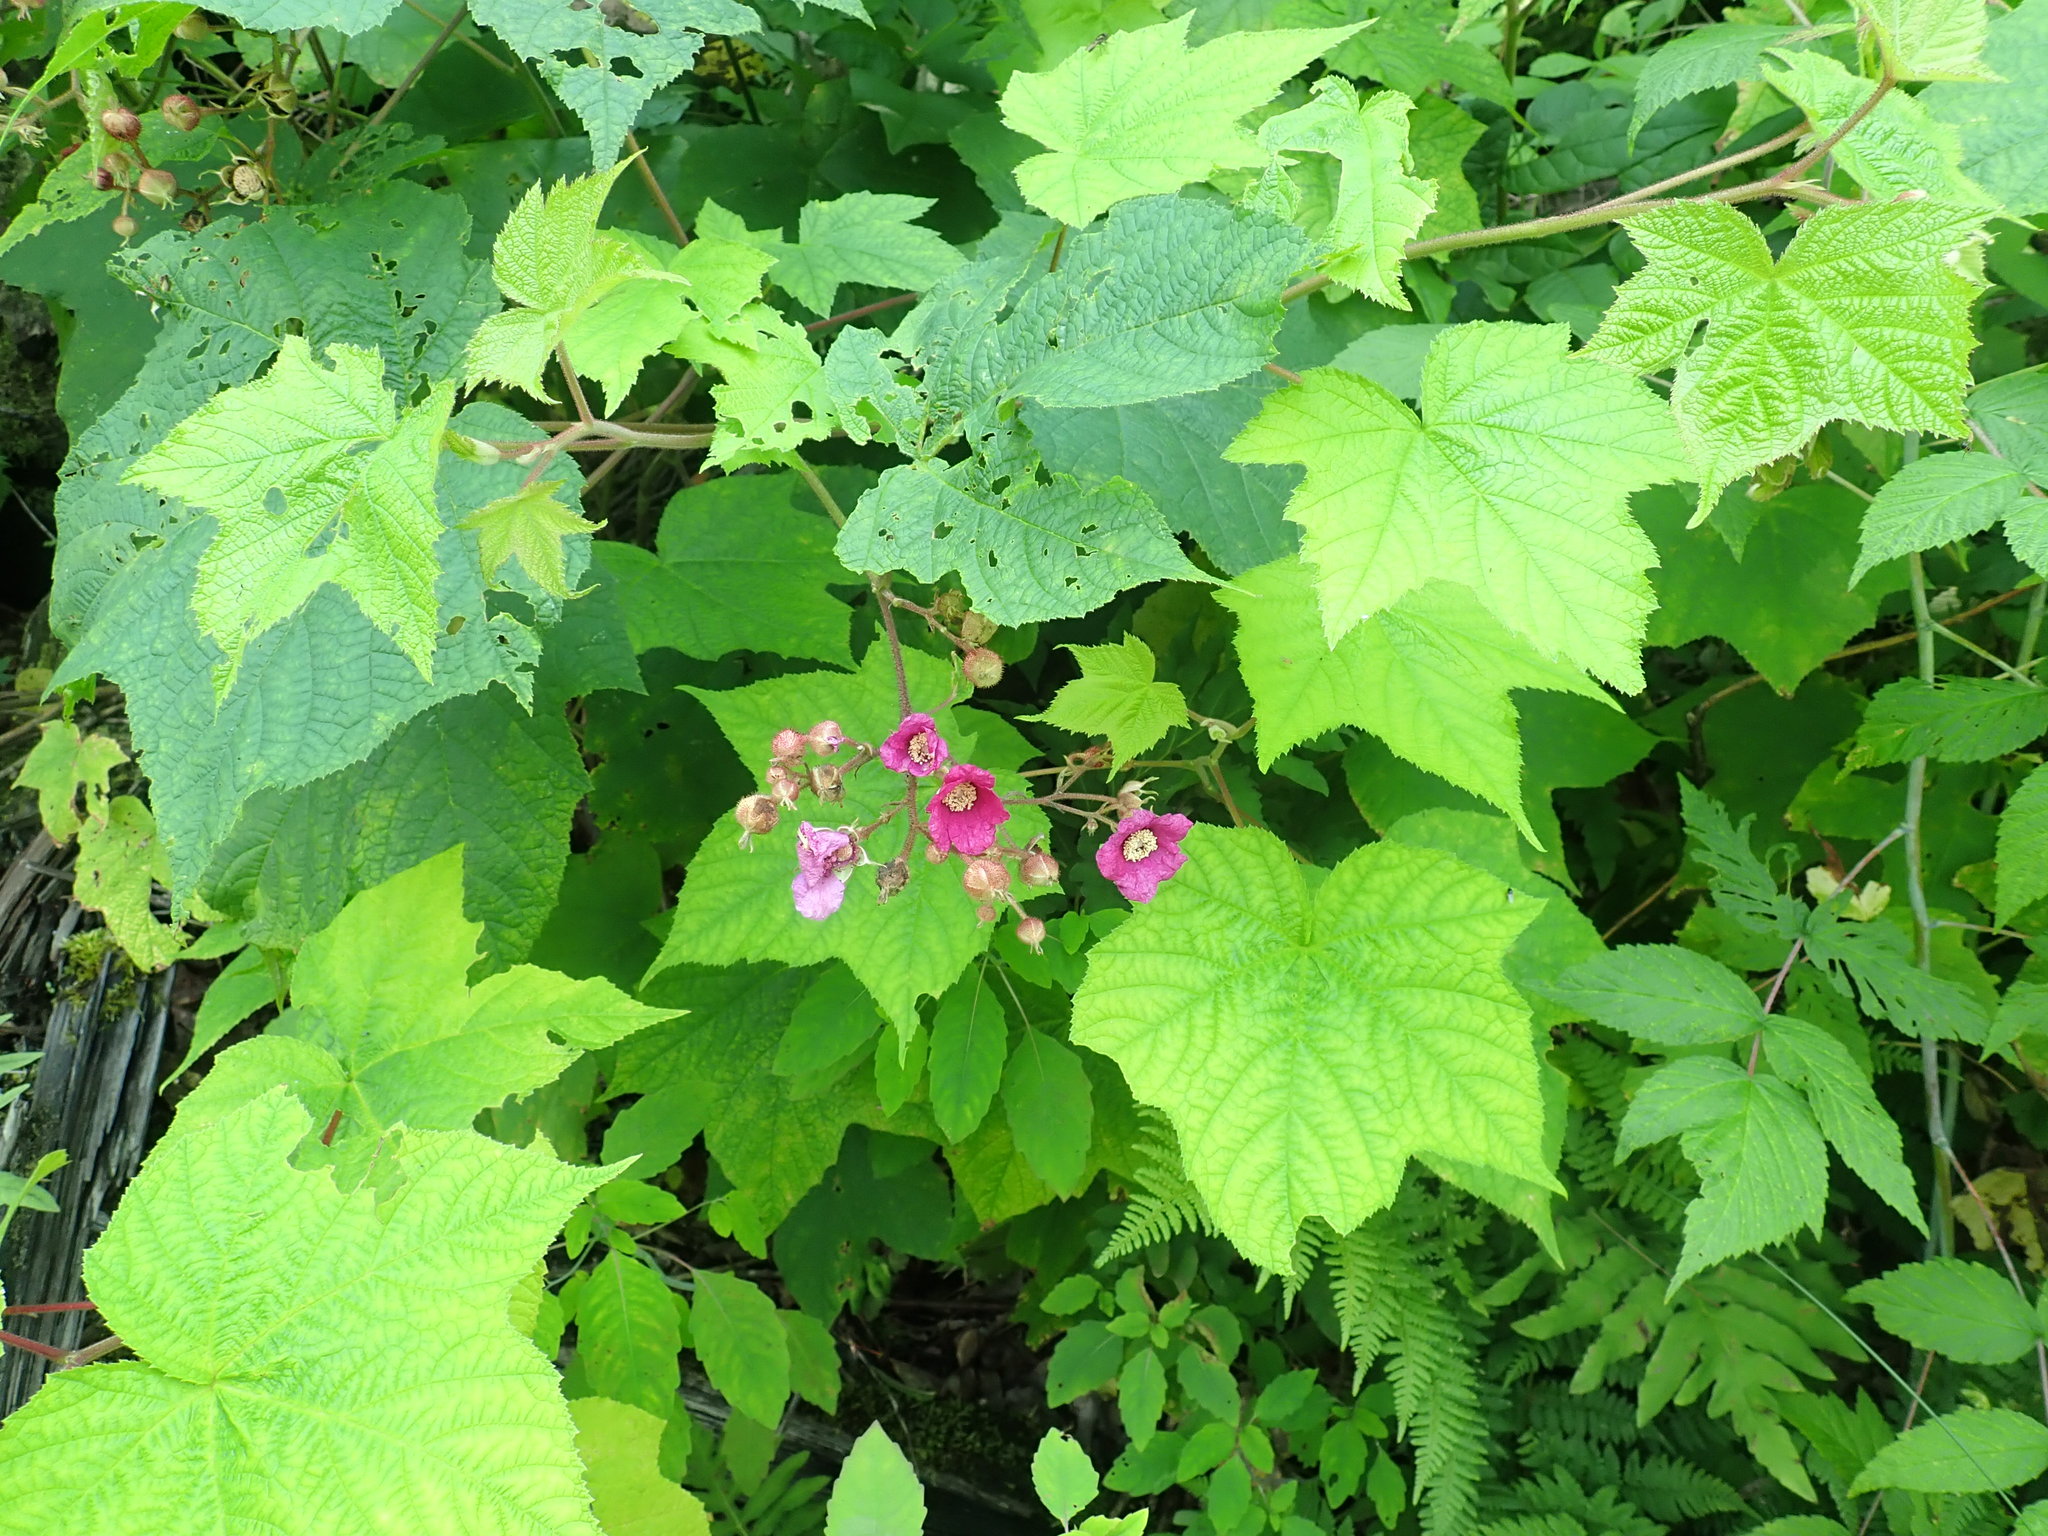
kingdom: Plantae
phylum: Tracheophyta
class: Magnoliopsida
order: Rosales
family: Rosaceae
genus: Rubus
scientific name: Rubus odoratus
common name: Purple-flowered raspberry
